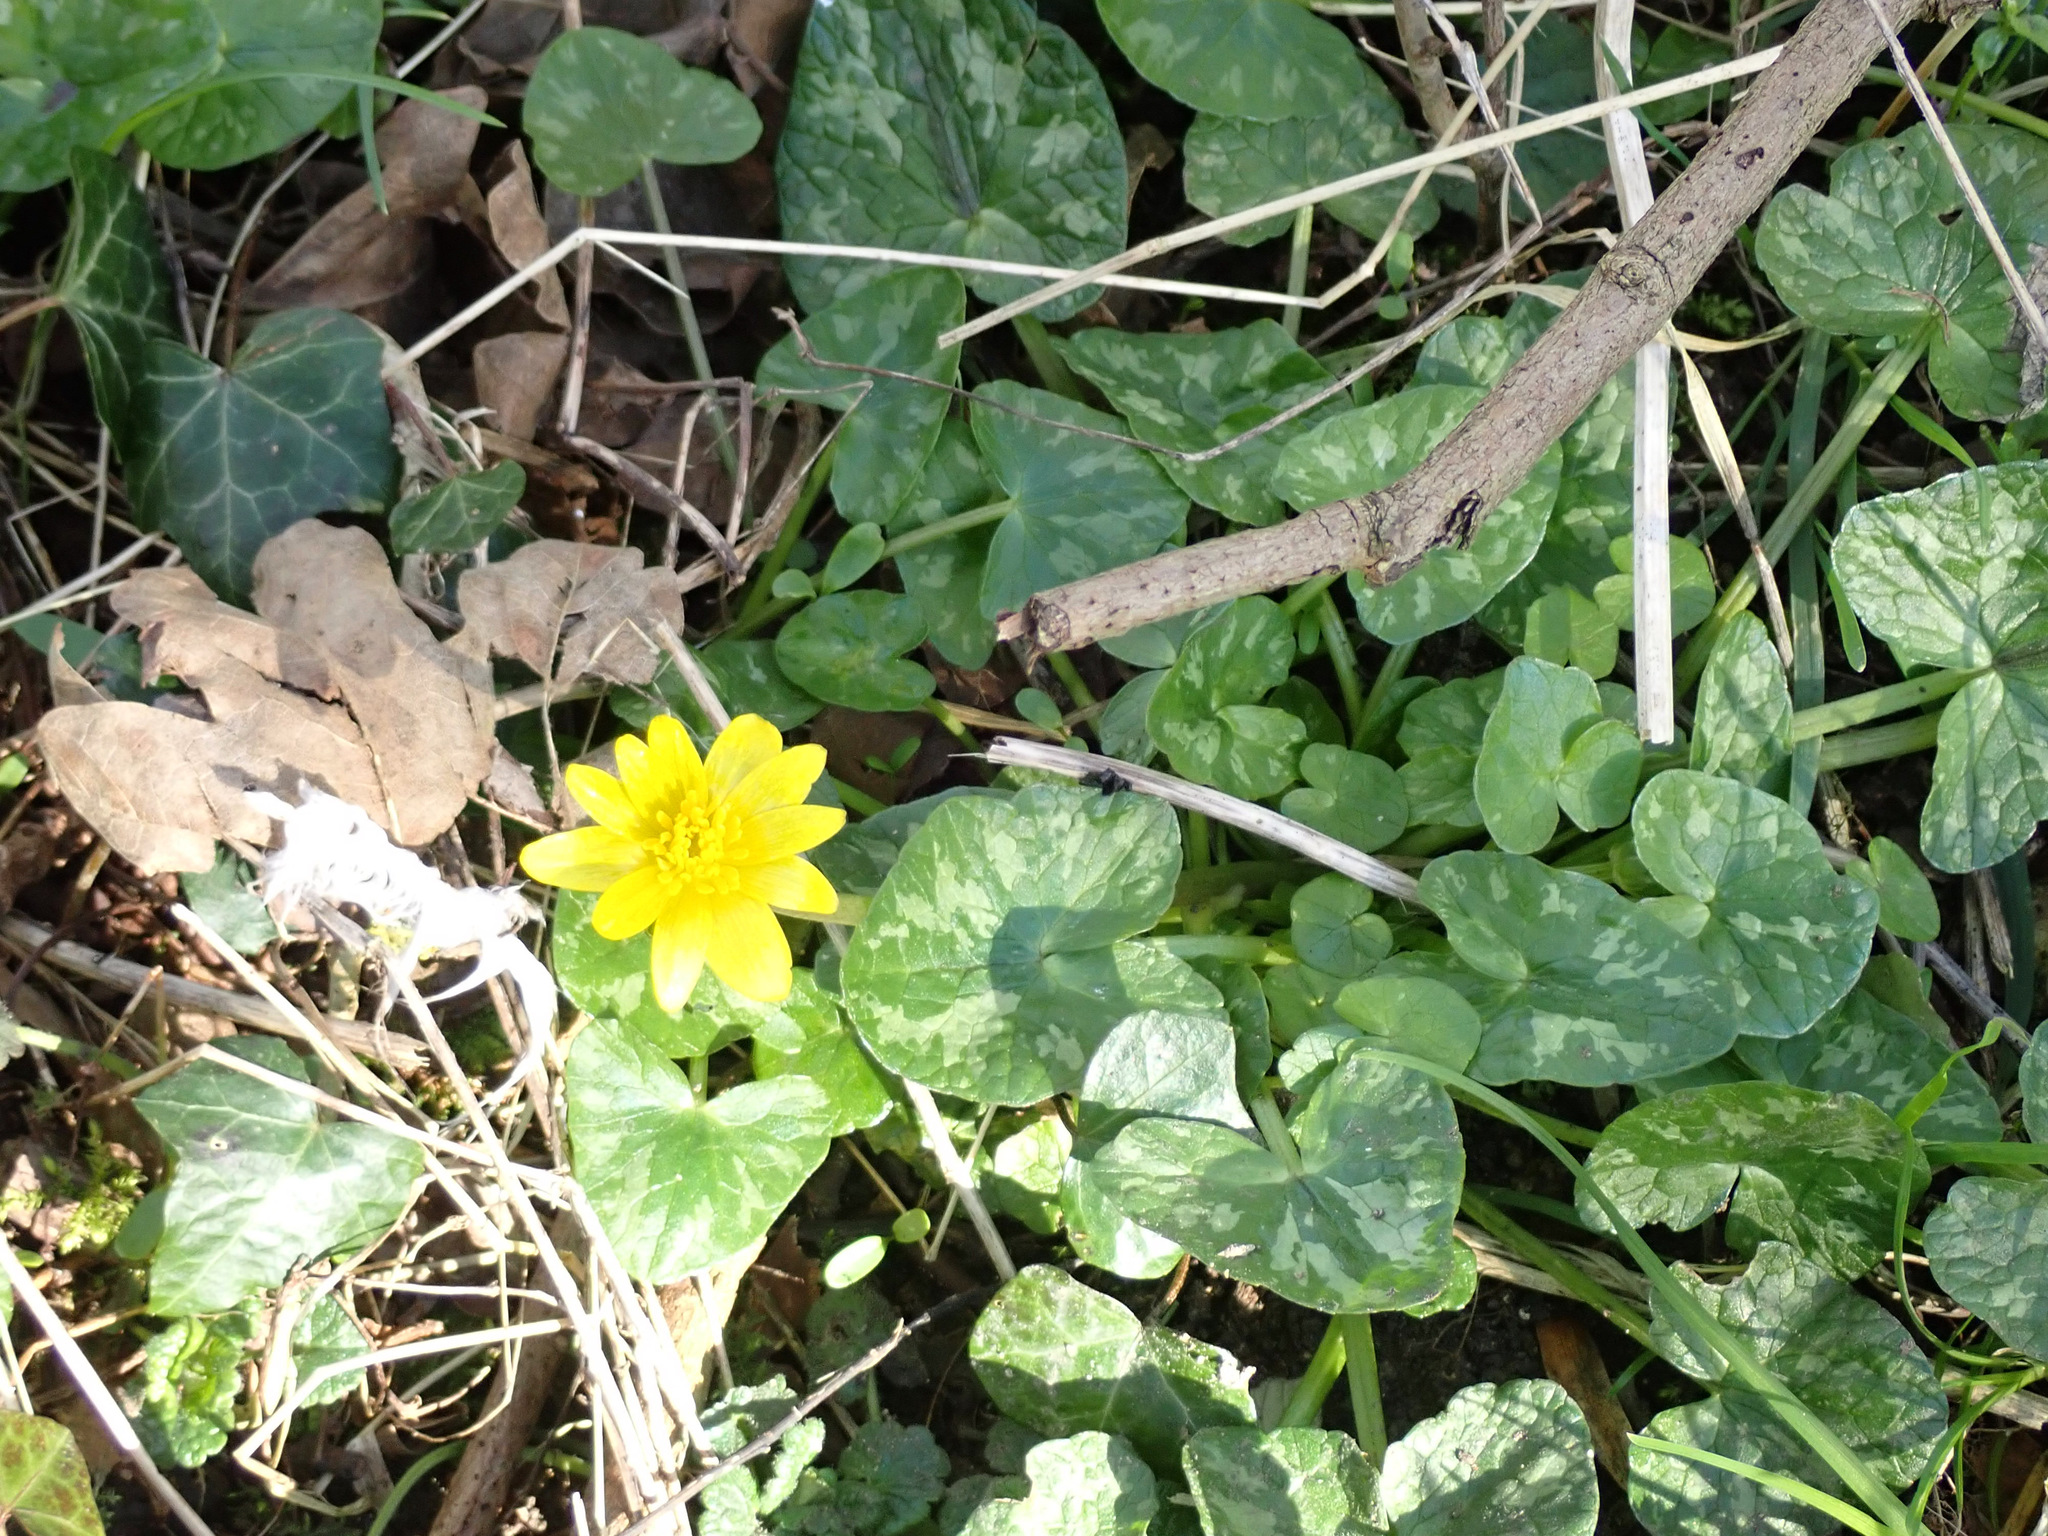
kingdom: Plantae
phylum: Tracheophyta
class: Magnoliopsida
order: Ranunculales
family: Ranunculaceae
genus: Ficaria
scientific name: Ficaria verna
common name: Lesser celandine
